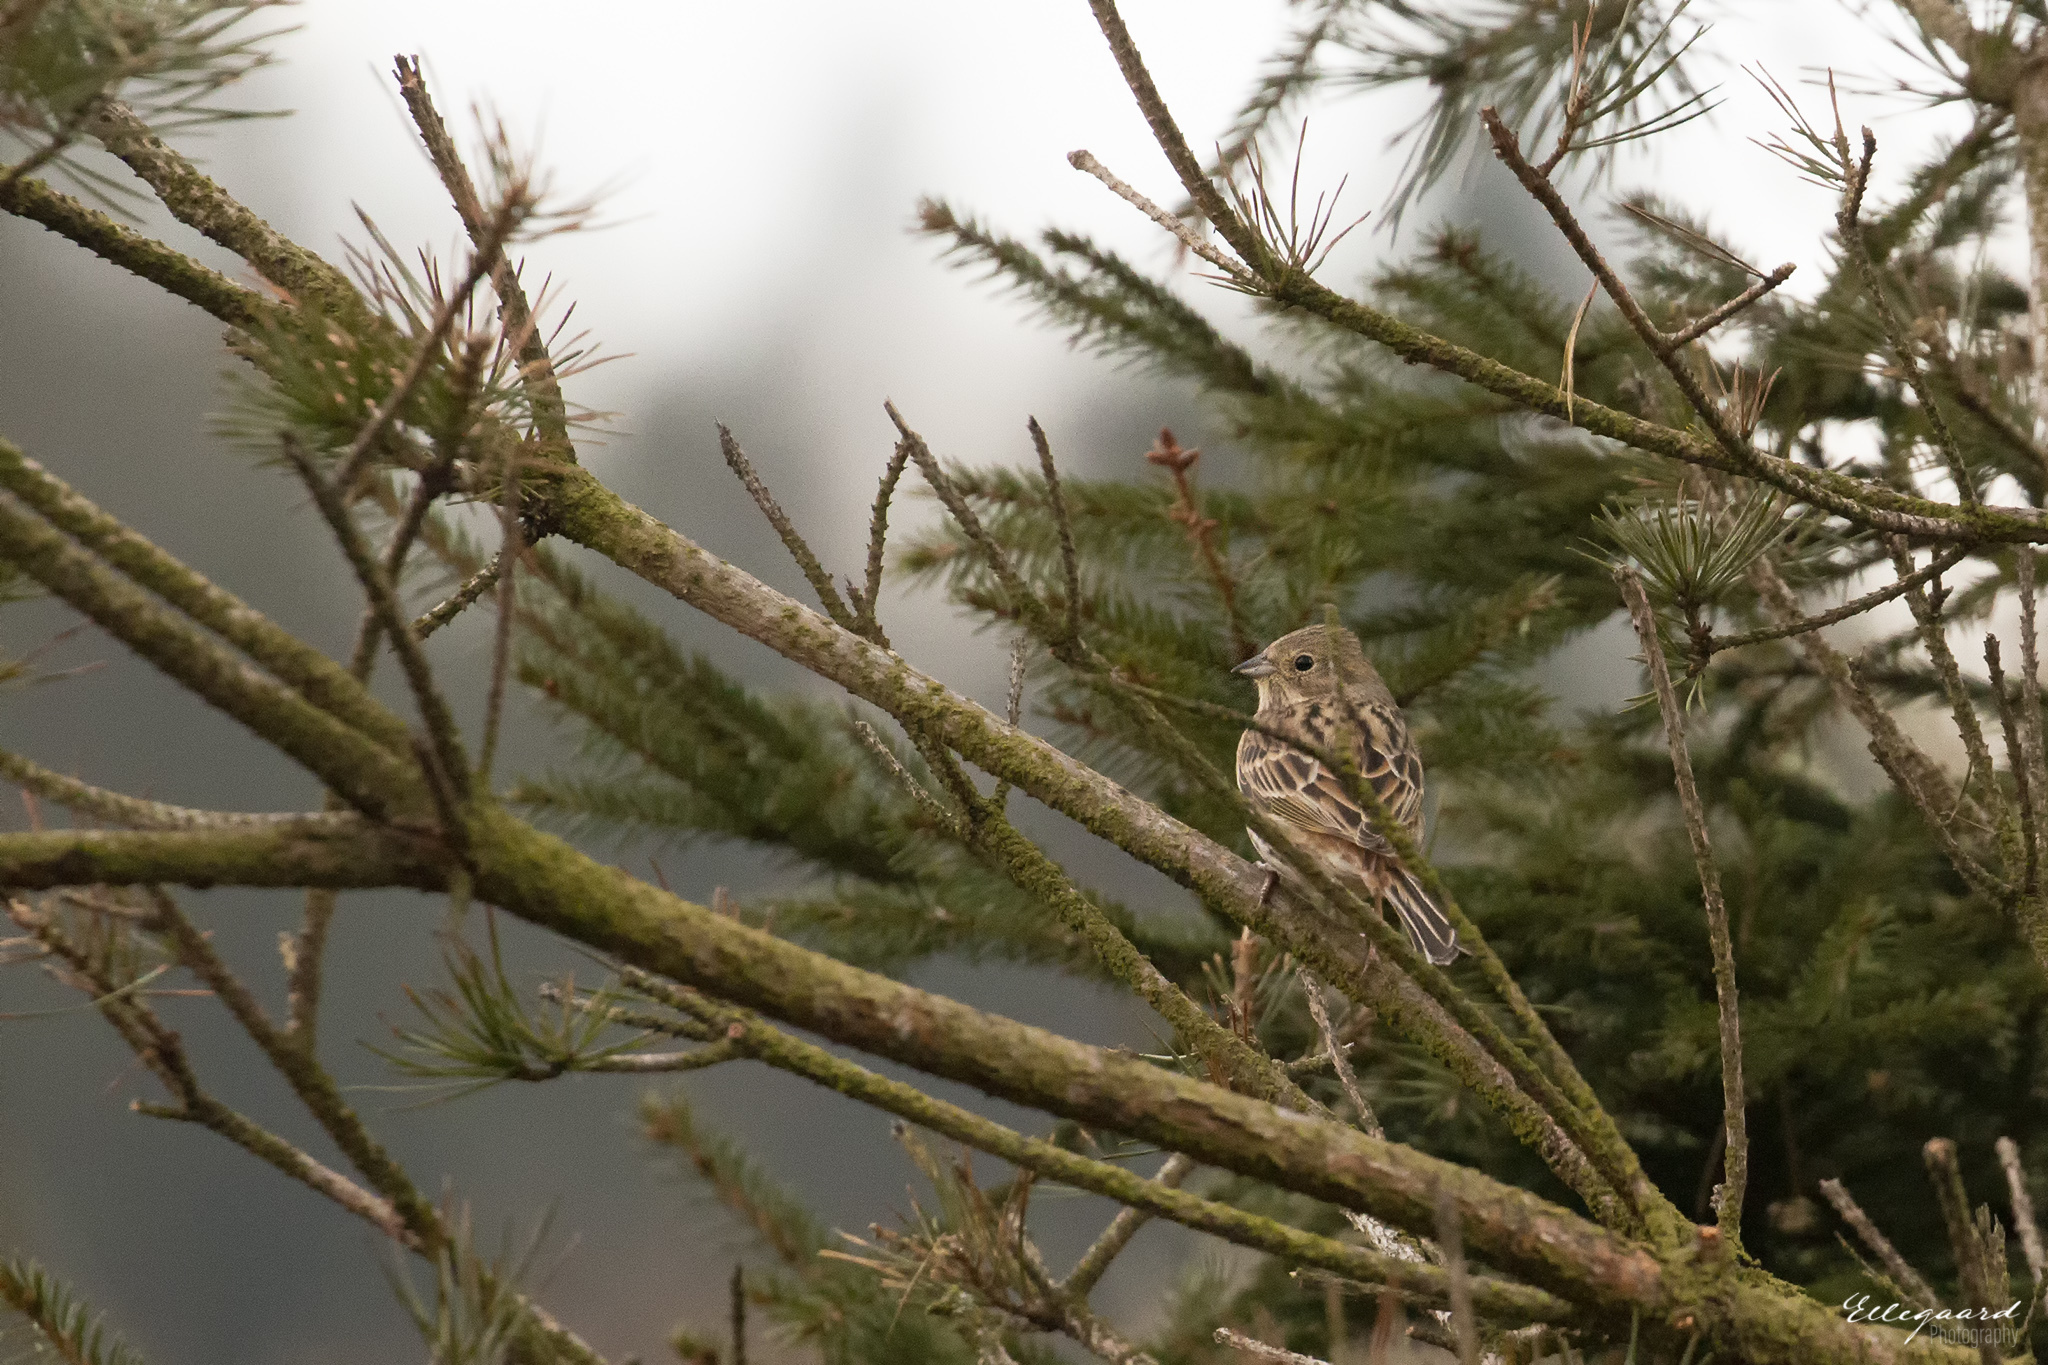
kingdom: Animalia
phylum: Chordata
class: Aves
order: Passeriformes
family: Emberizidae
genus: Emberiza
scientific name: Emberiza citrinella
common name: Yellowhammer
